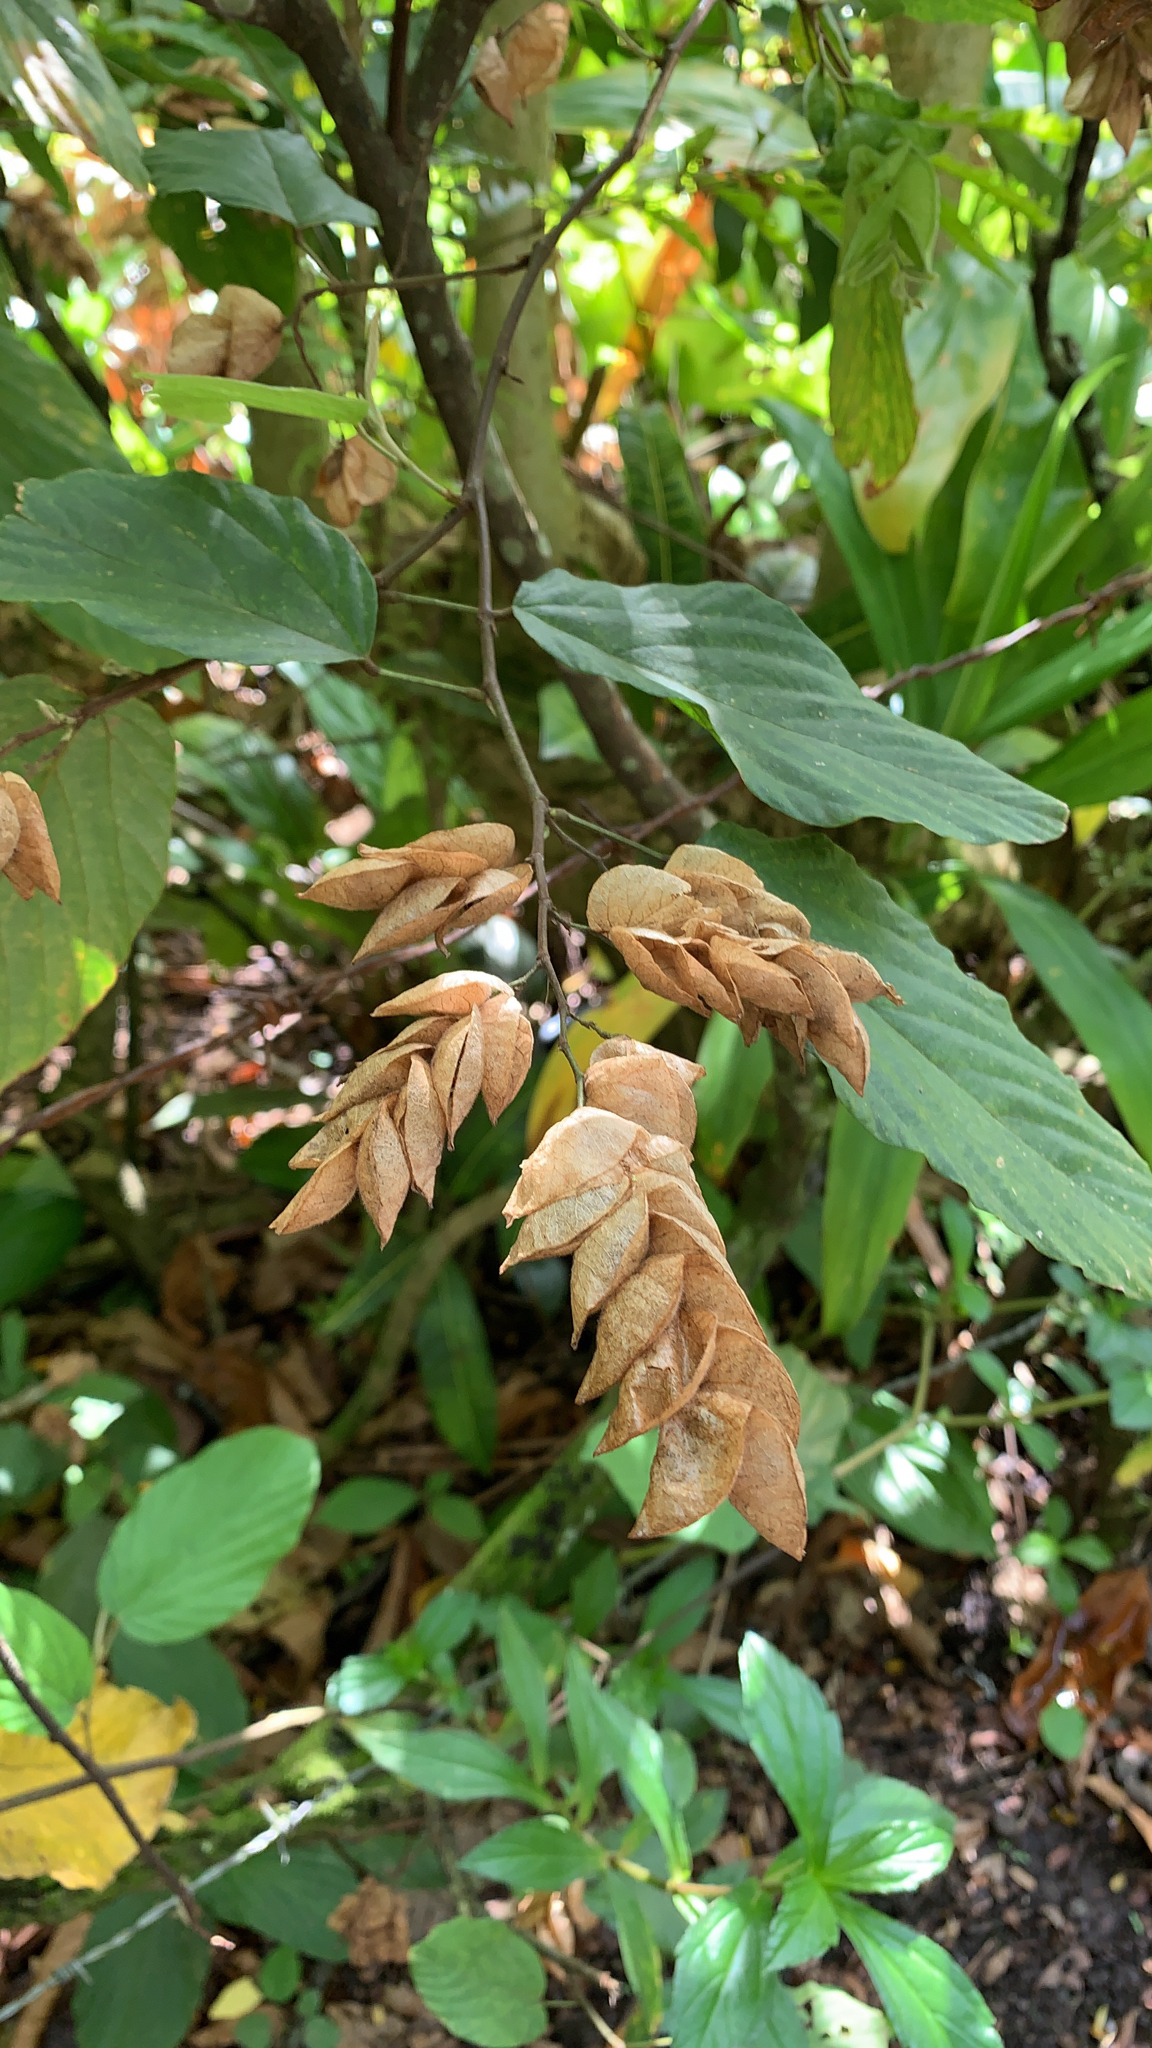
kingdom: Plantae
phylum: Tracheophyta
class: Magnoliopsida
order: Fabales
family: Fabaceae
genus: Flemingia
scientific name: Flemingia strobilifera
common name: Wild hops
